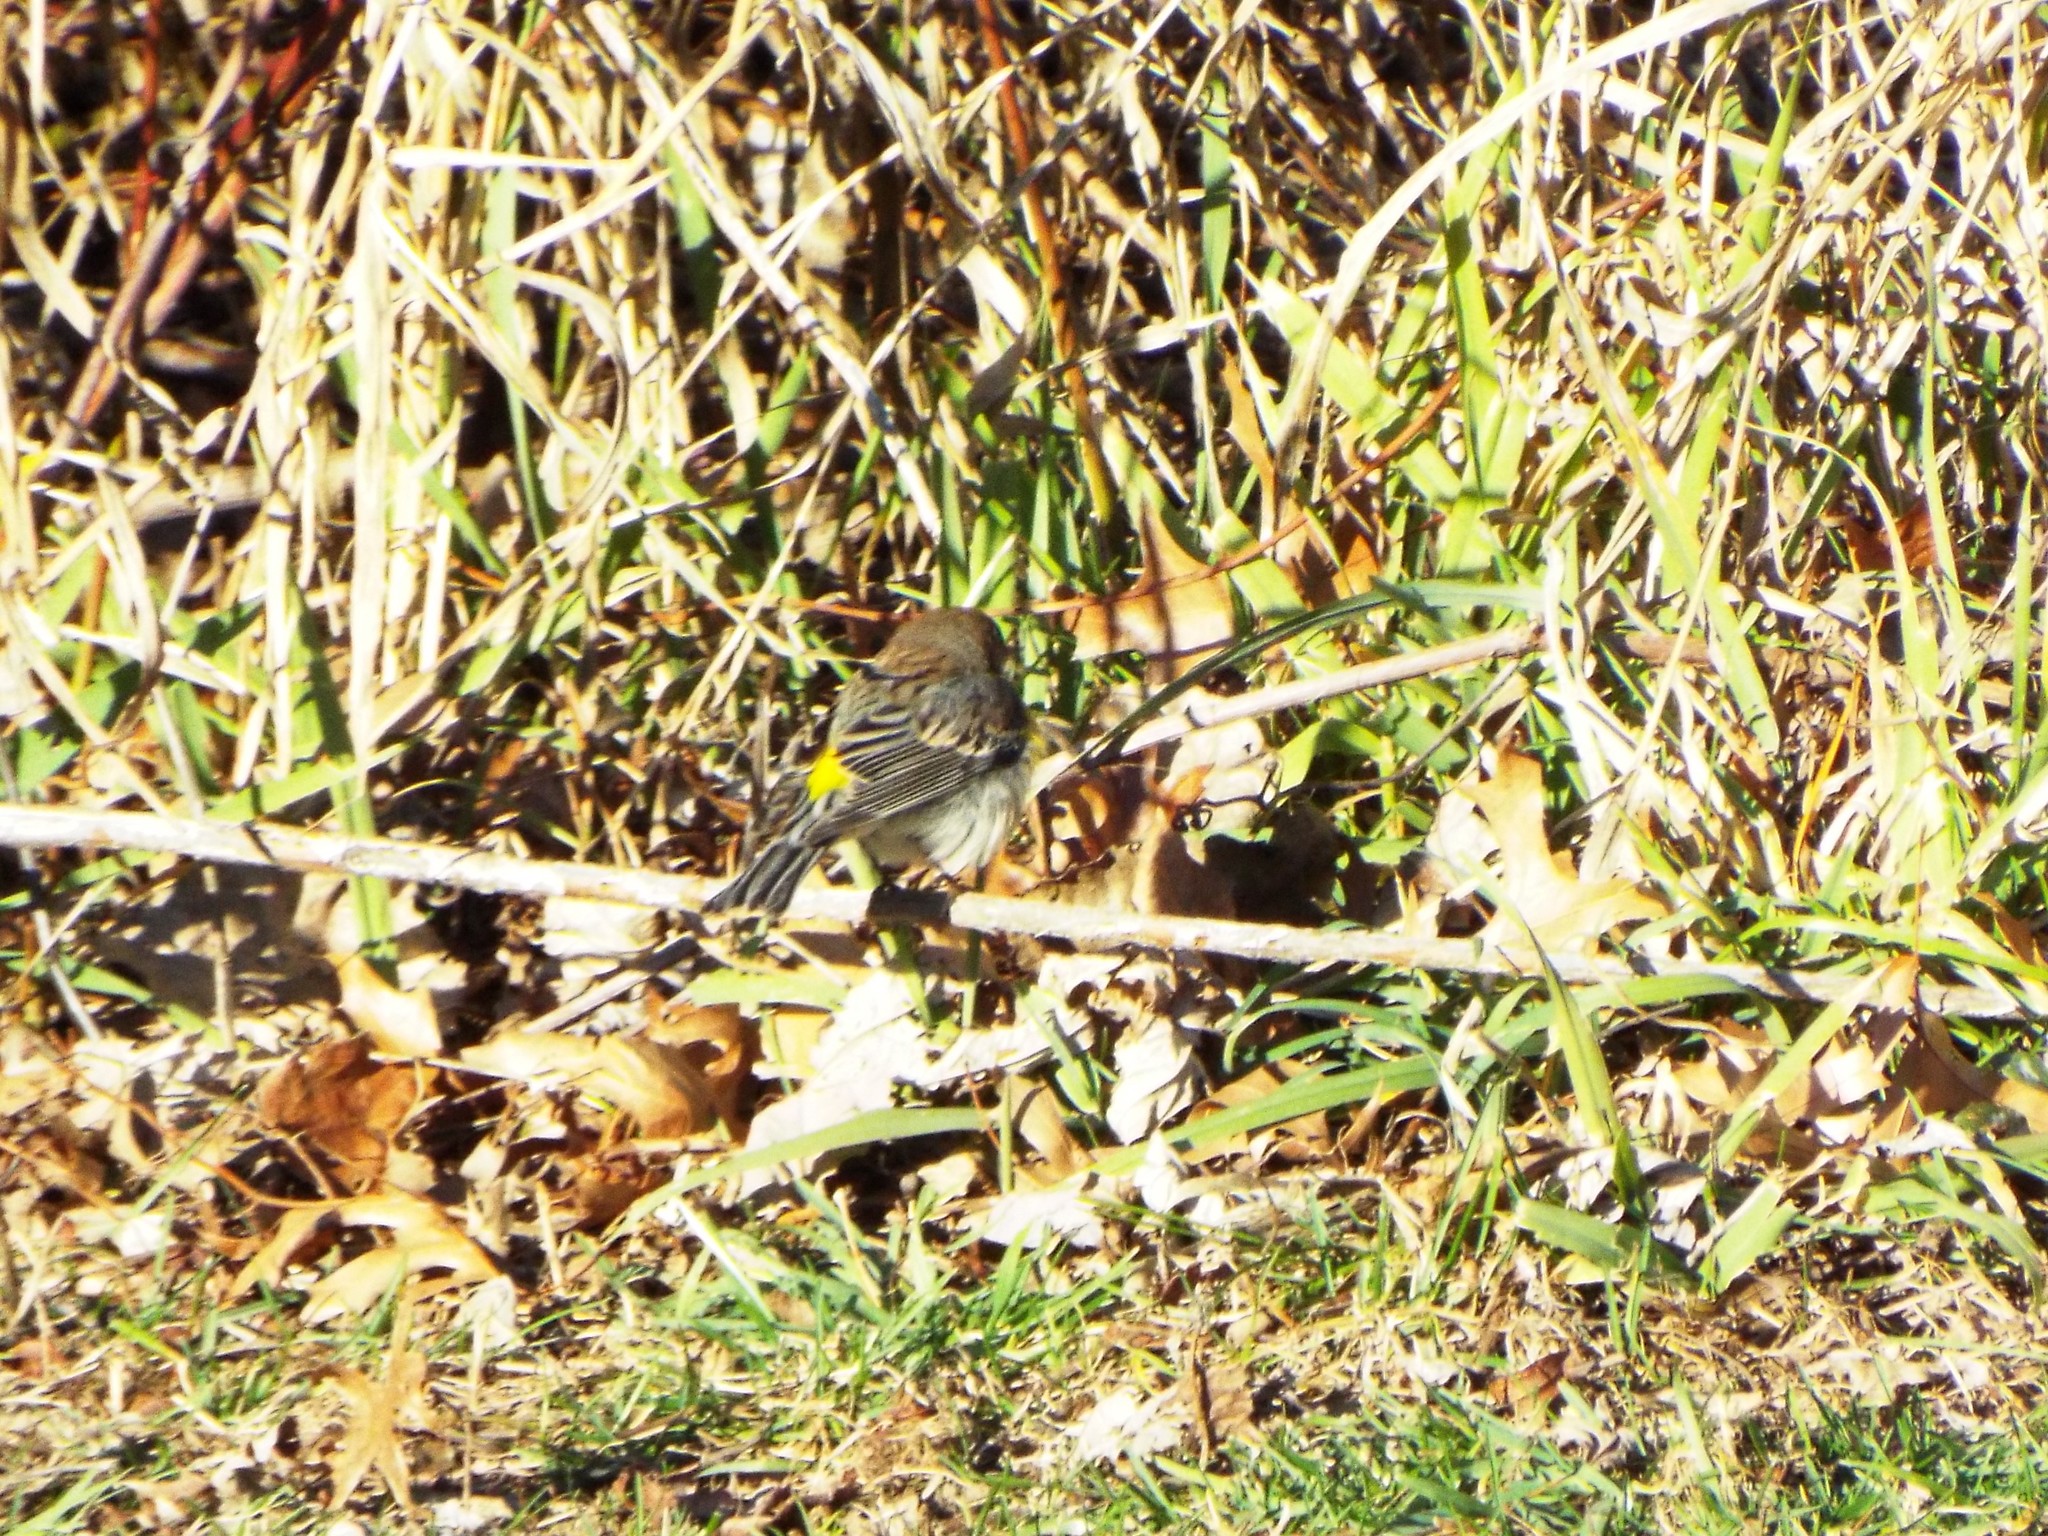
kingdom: Animalia
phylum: Chordata
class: Aves
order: Passeriformes
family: Parulidae
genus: Setophaga
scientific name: Setophaga coronata
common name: Myrtle warbler
